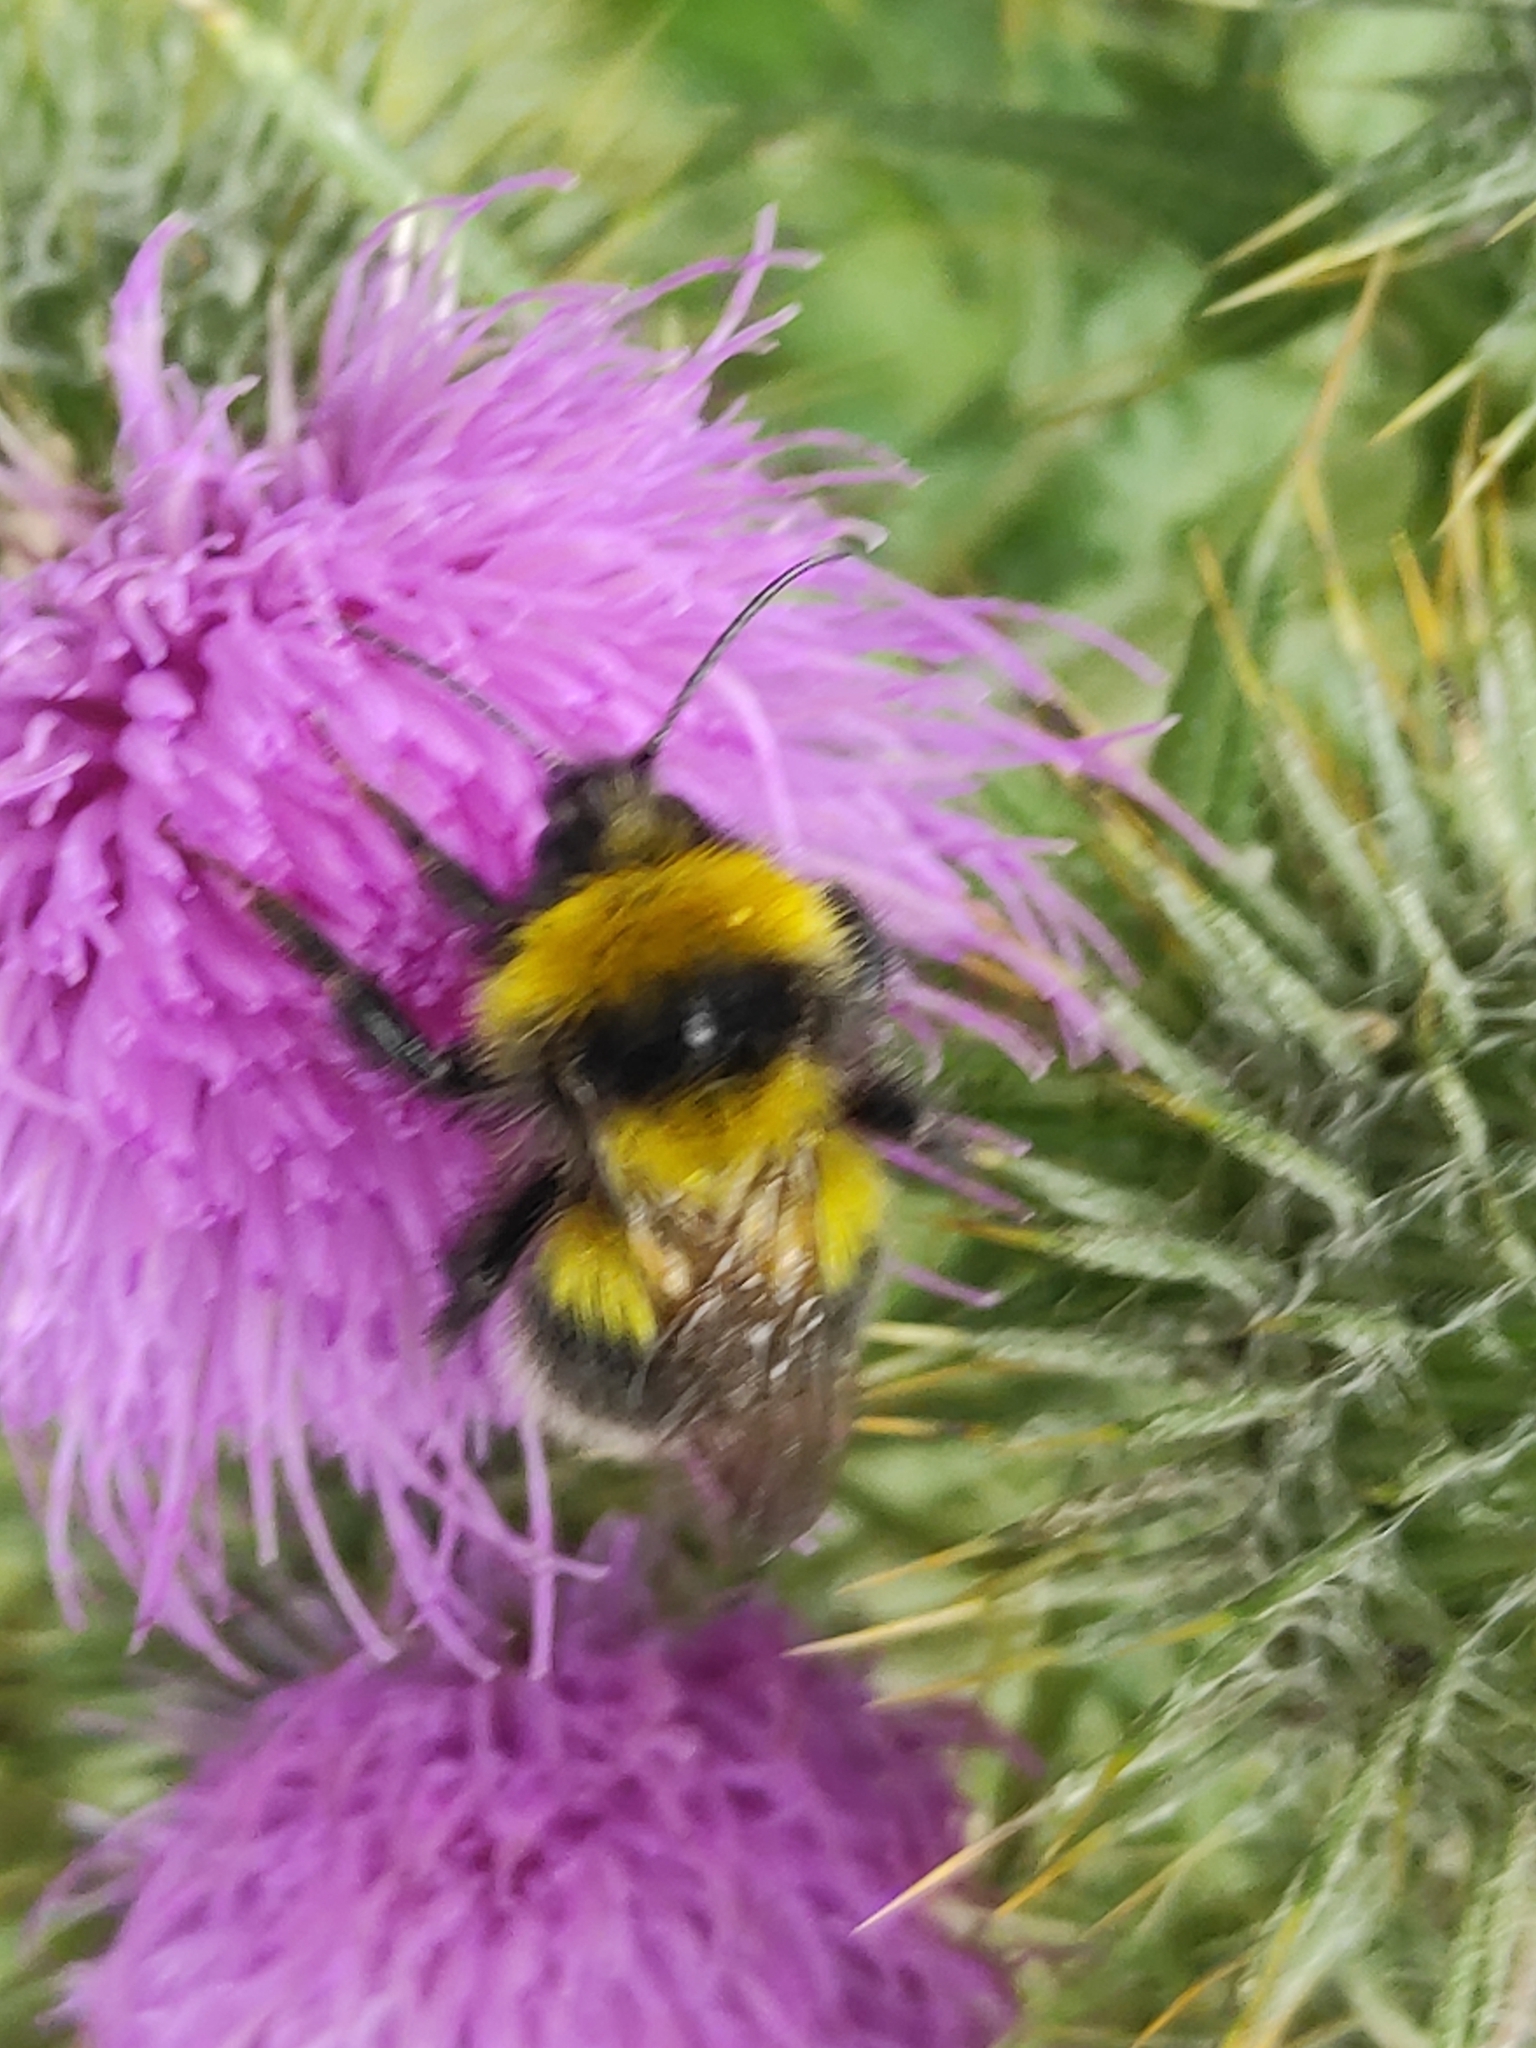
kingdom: Animalia
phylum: Arthropoda
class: Insecta
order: Hymenoptera
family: Apidae
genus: Bombus
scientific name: Bombus hortorum
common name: Garden bumblebee
